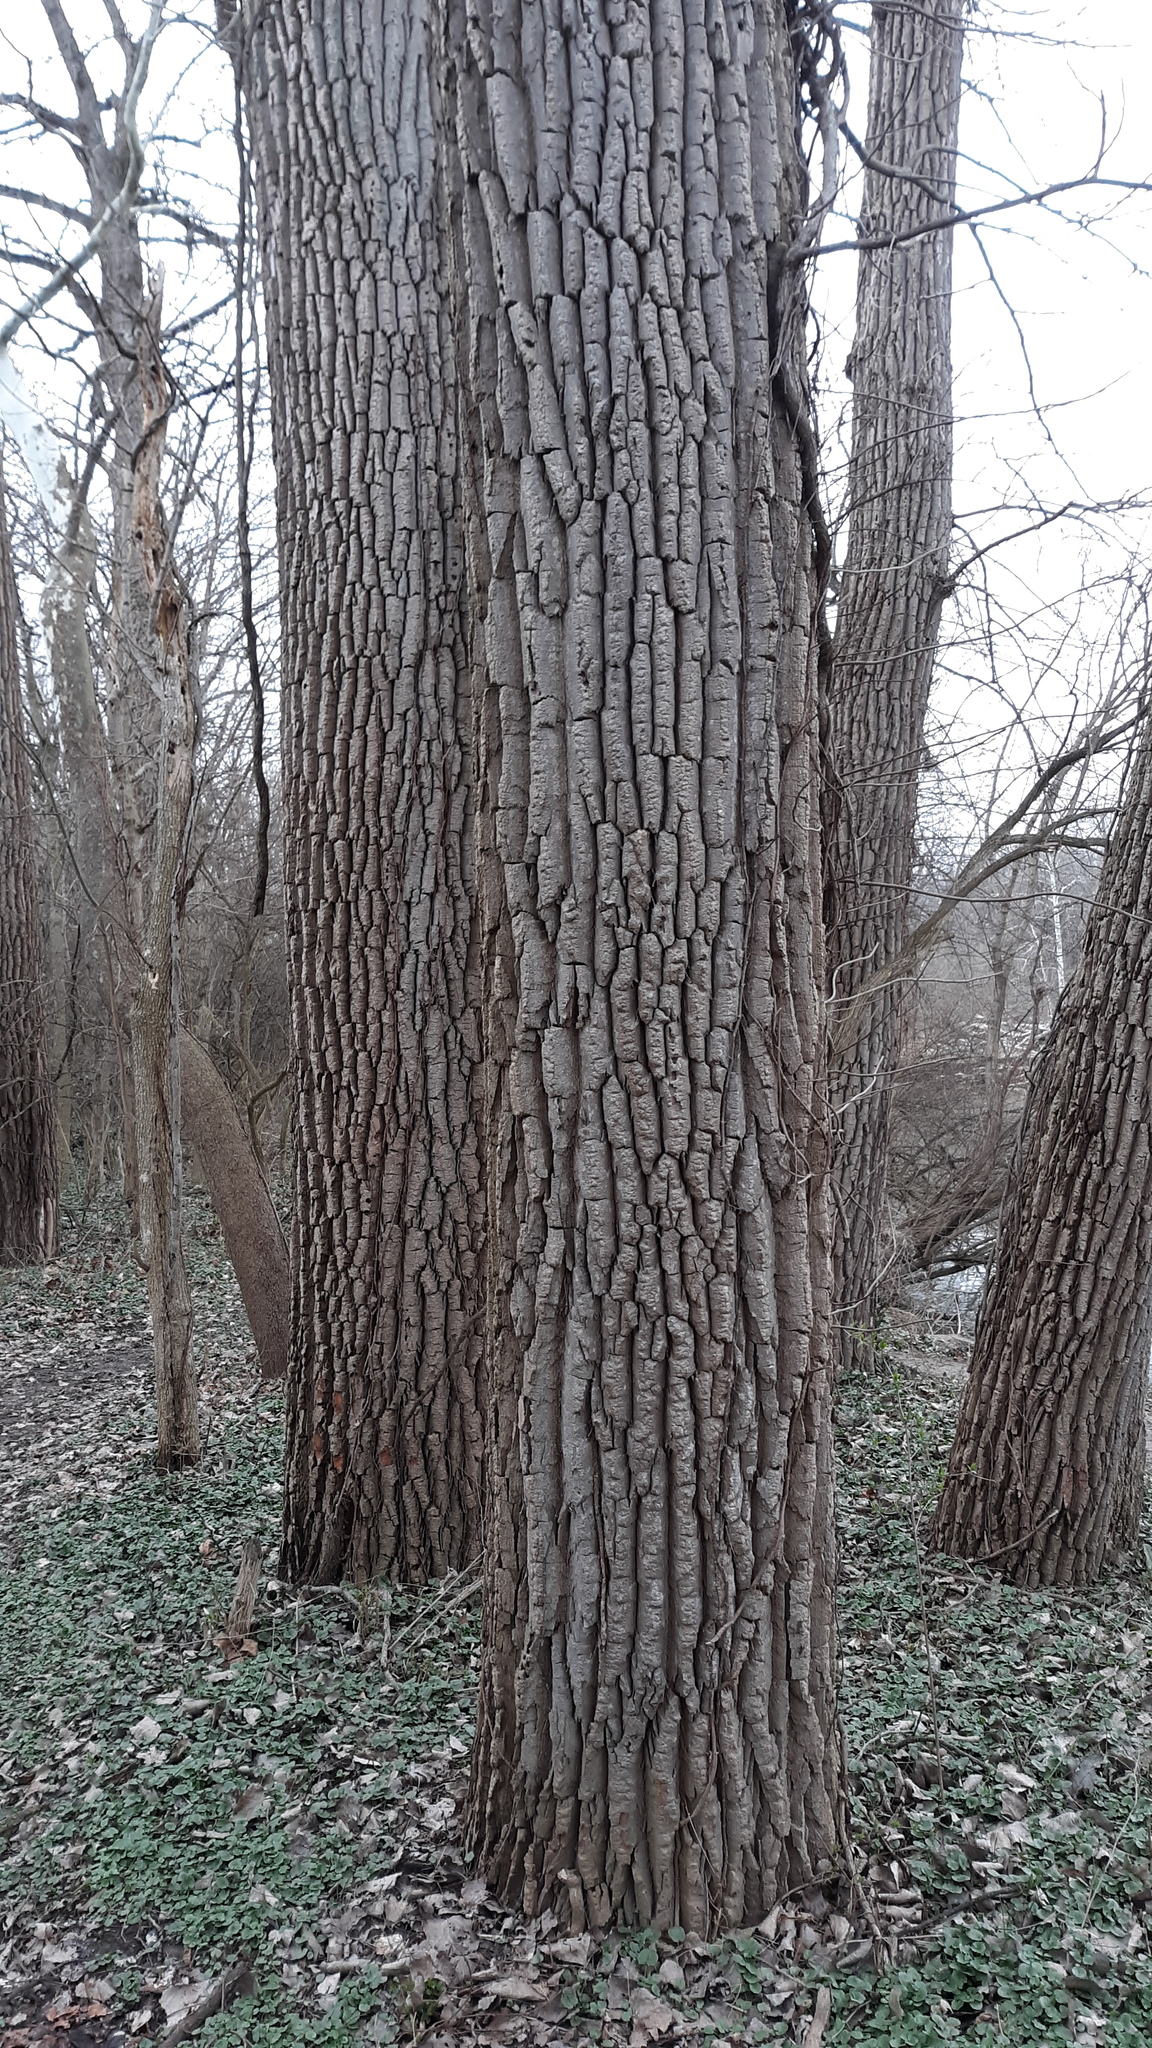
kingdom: Plantae
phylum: Tracheophyta
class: Magnoliopsida
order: Malpighiales
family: Salicaceae
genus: Populus
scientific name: Populus deltoides
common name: Eastern cottonwood
